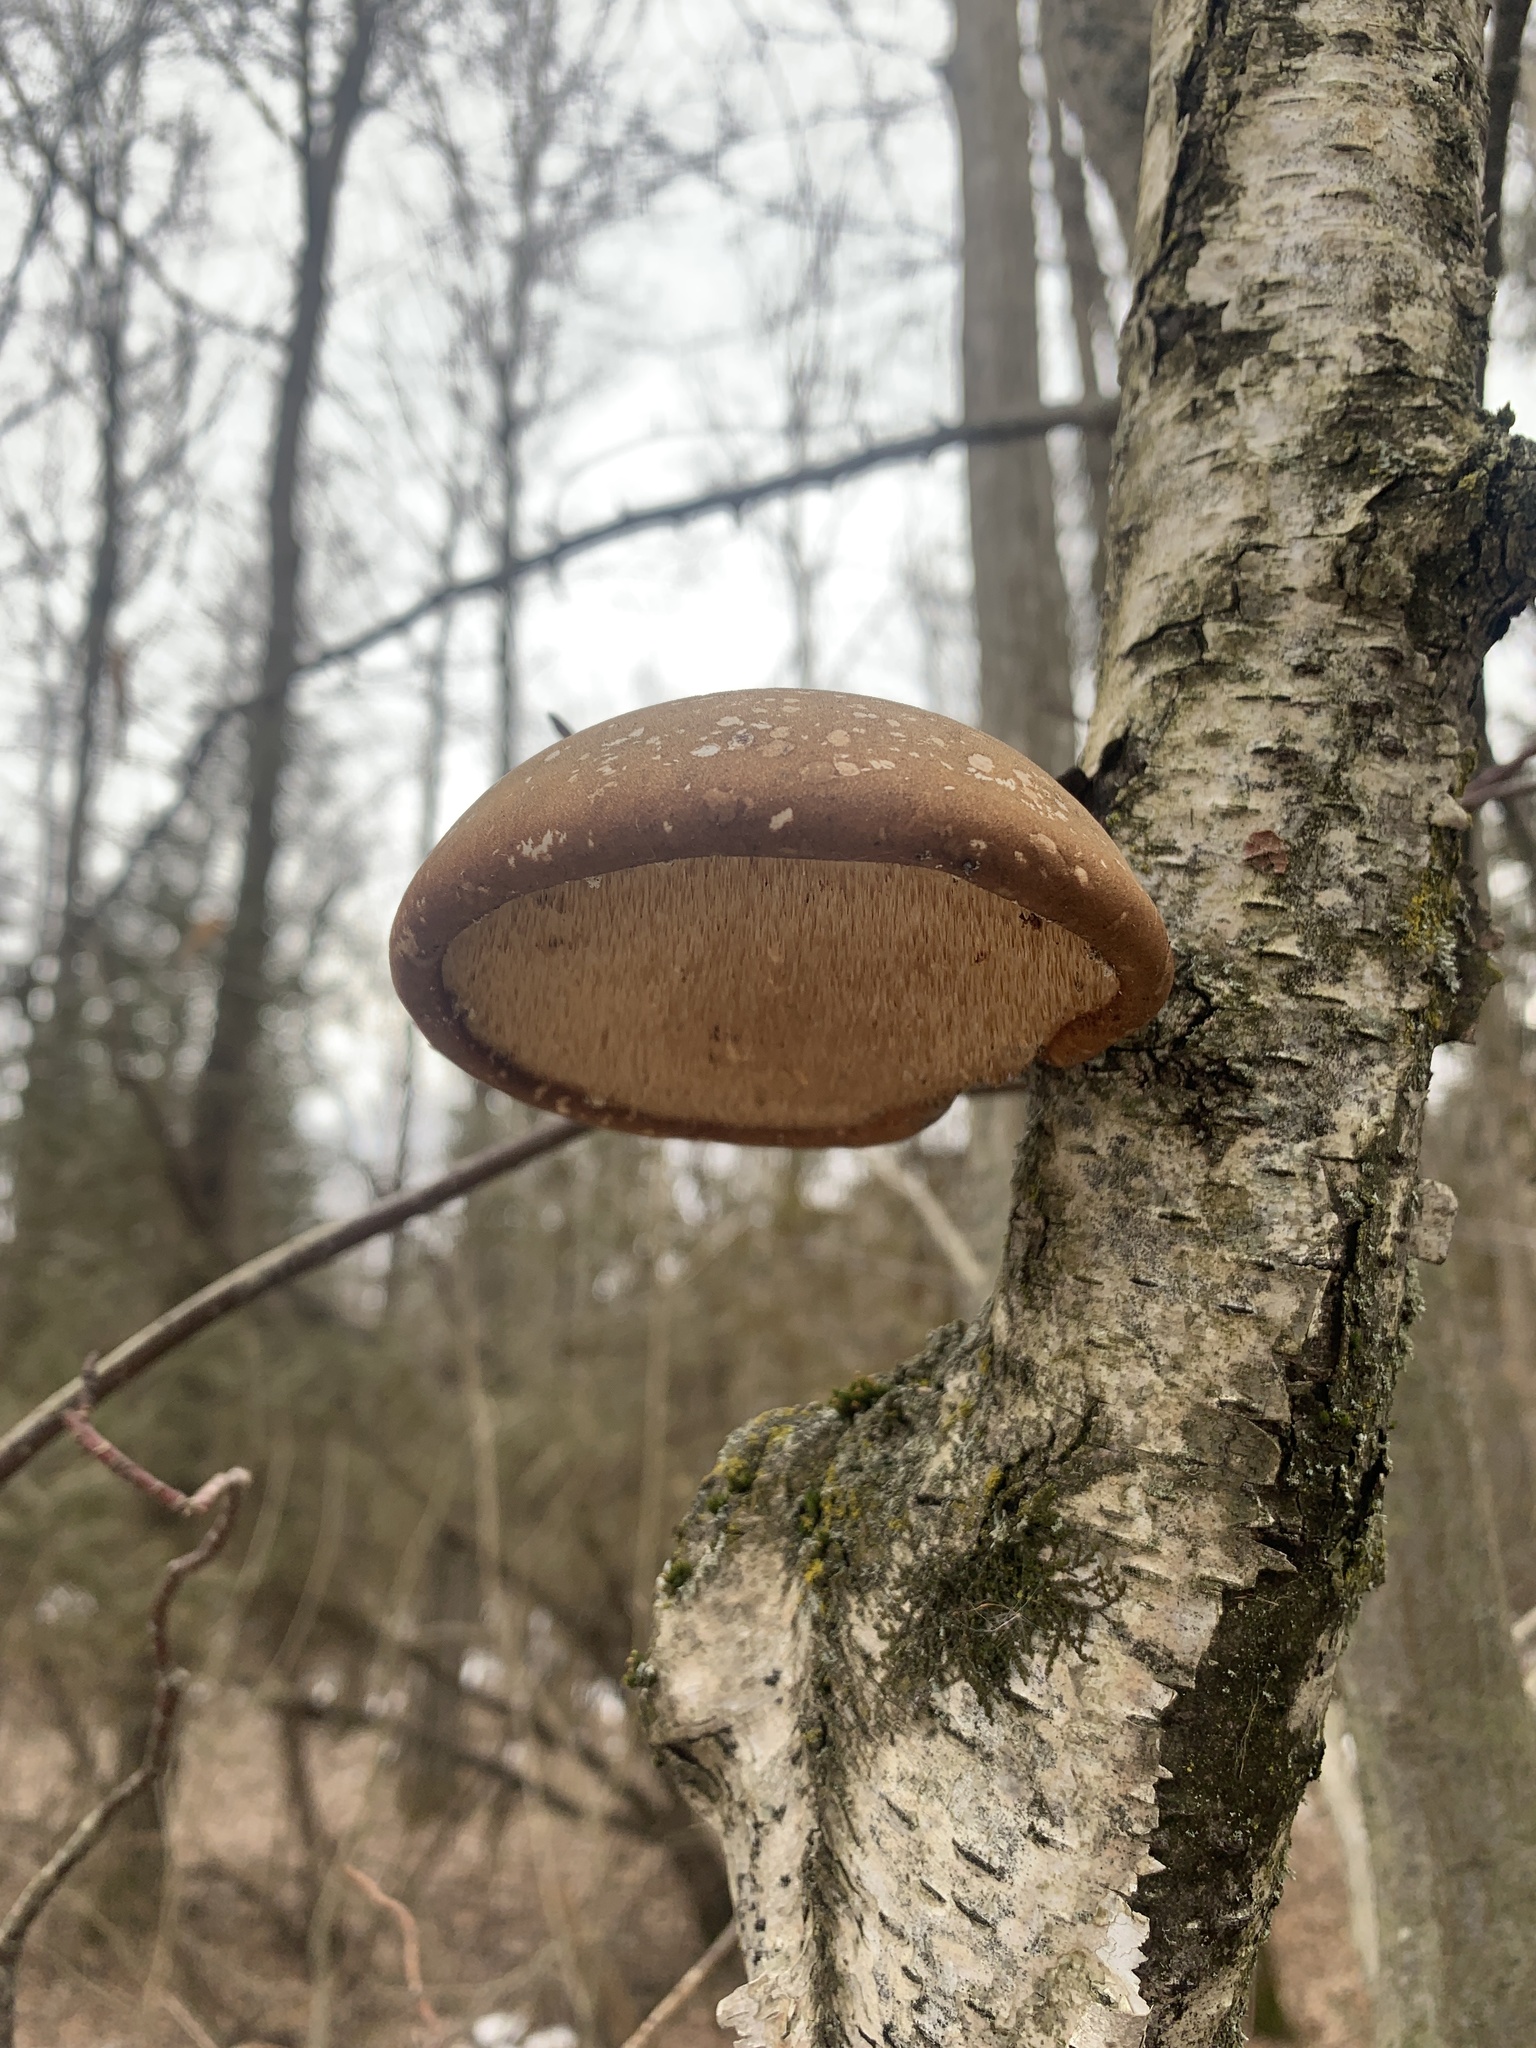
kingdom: Fungi
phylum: Basidiomycota
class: Agaricomycetes
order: Polyporales
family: Fomitopsidaceae
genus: Fomitopsis
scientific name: Fomitopsis betulina
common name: Birch polypore
